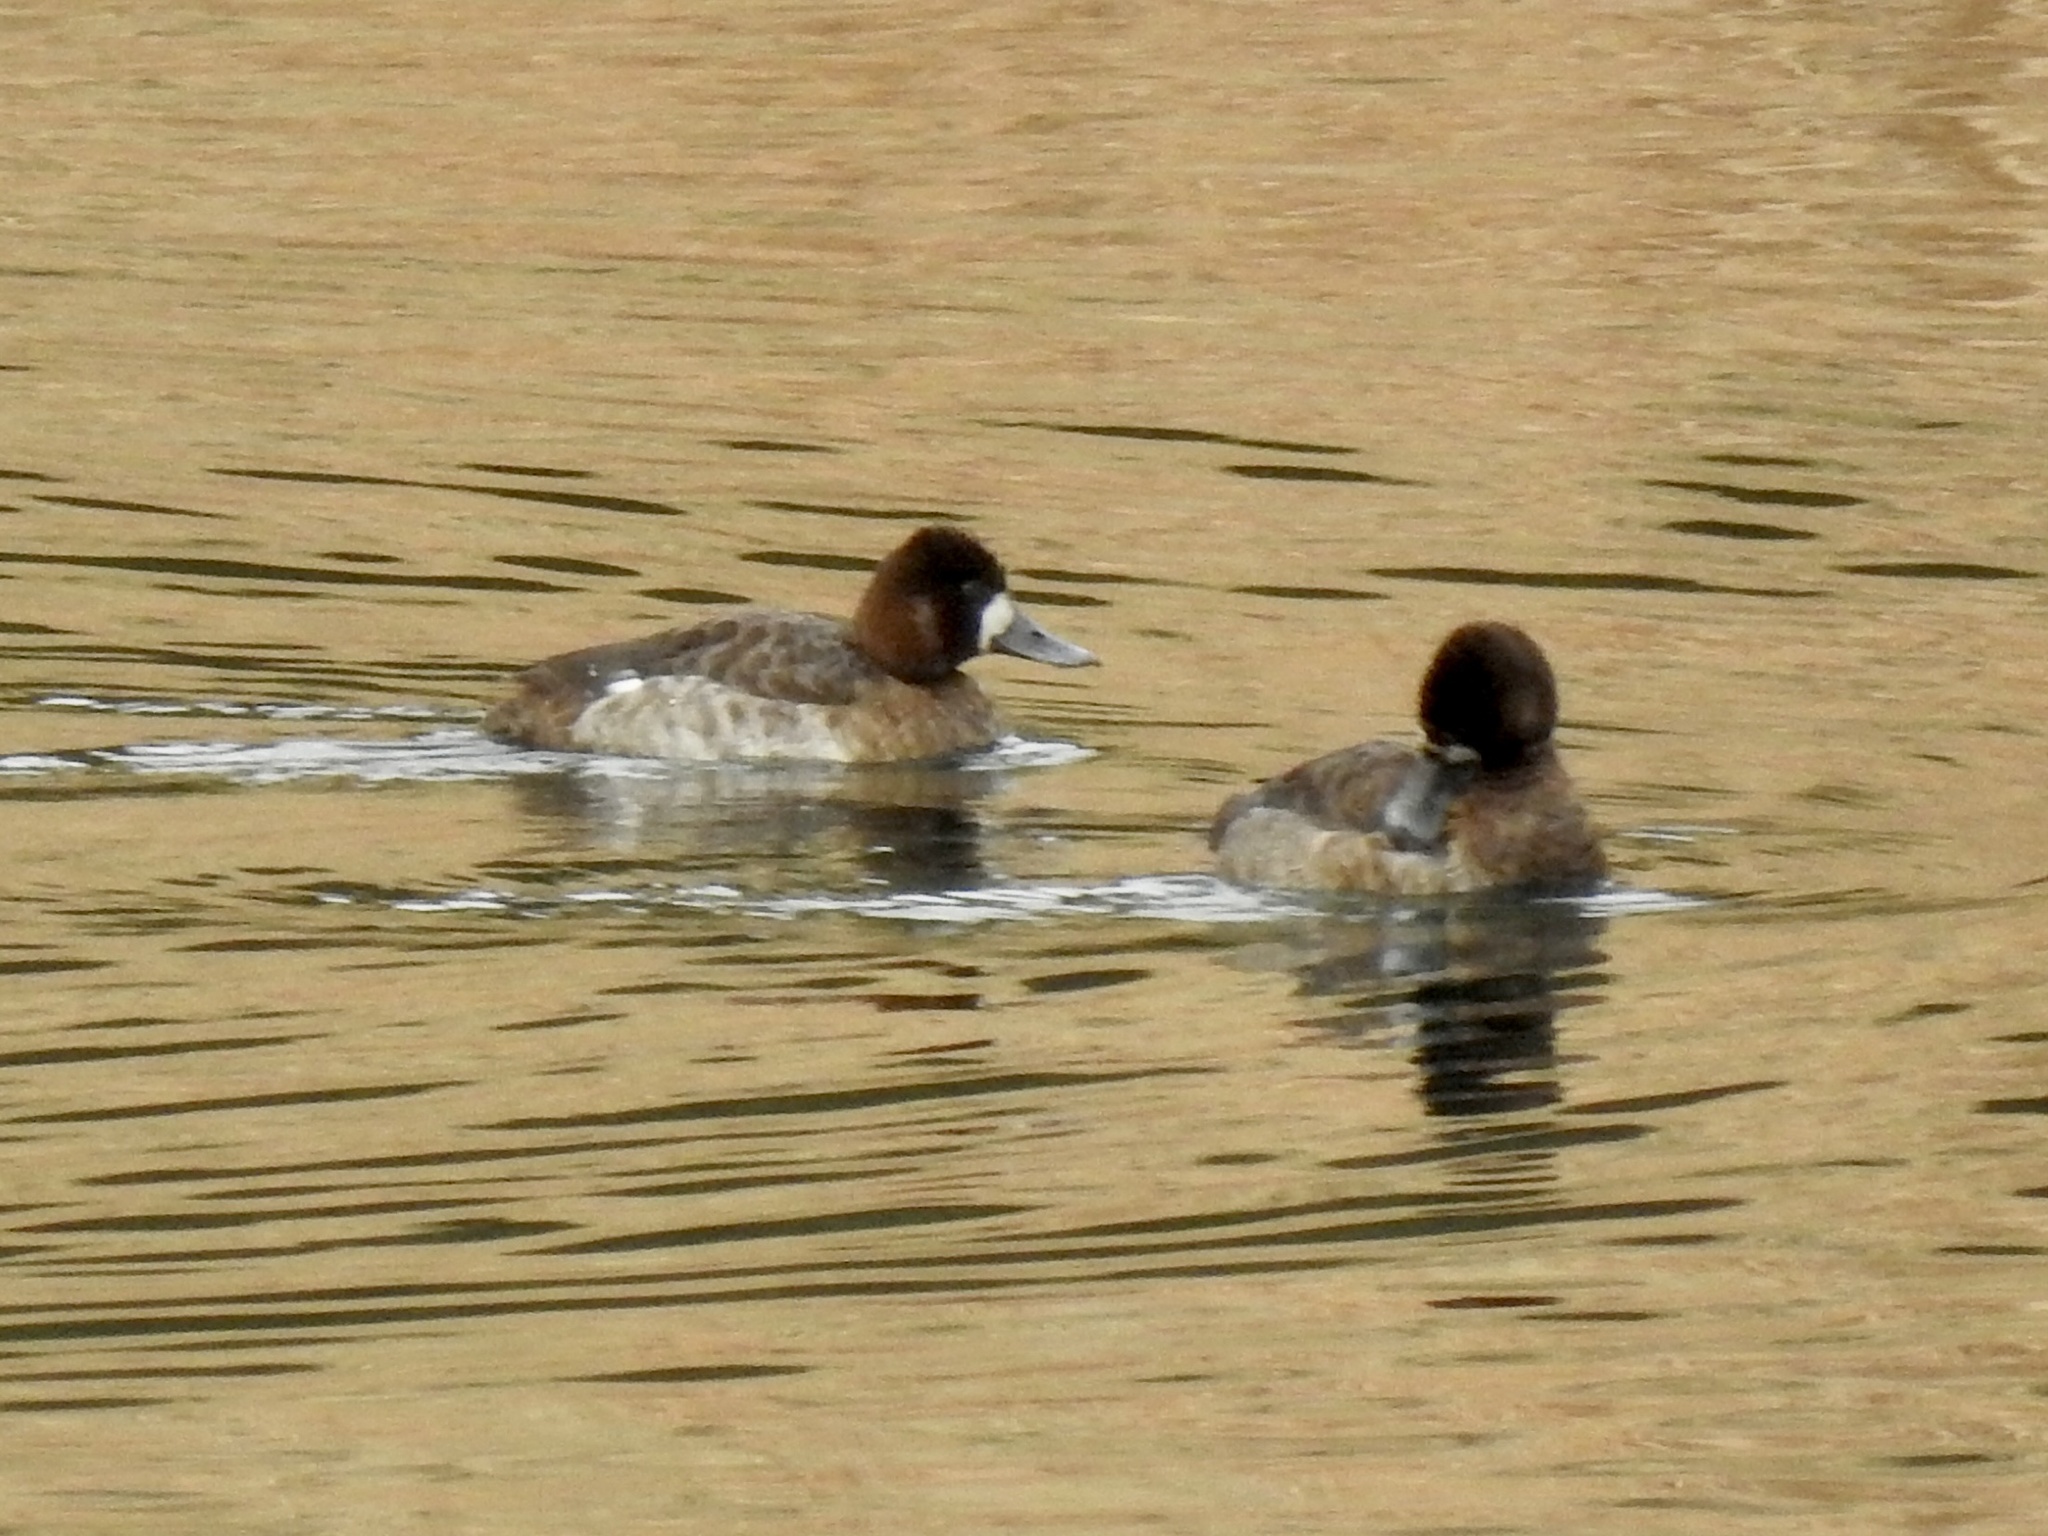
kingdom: Animalia
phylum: Chordata
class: Aves
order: Anseriformes
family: Anatidae
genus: Aythya
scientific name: Aythya affinis
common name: Lesser scaup
